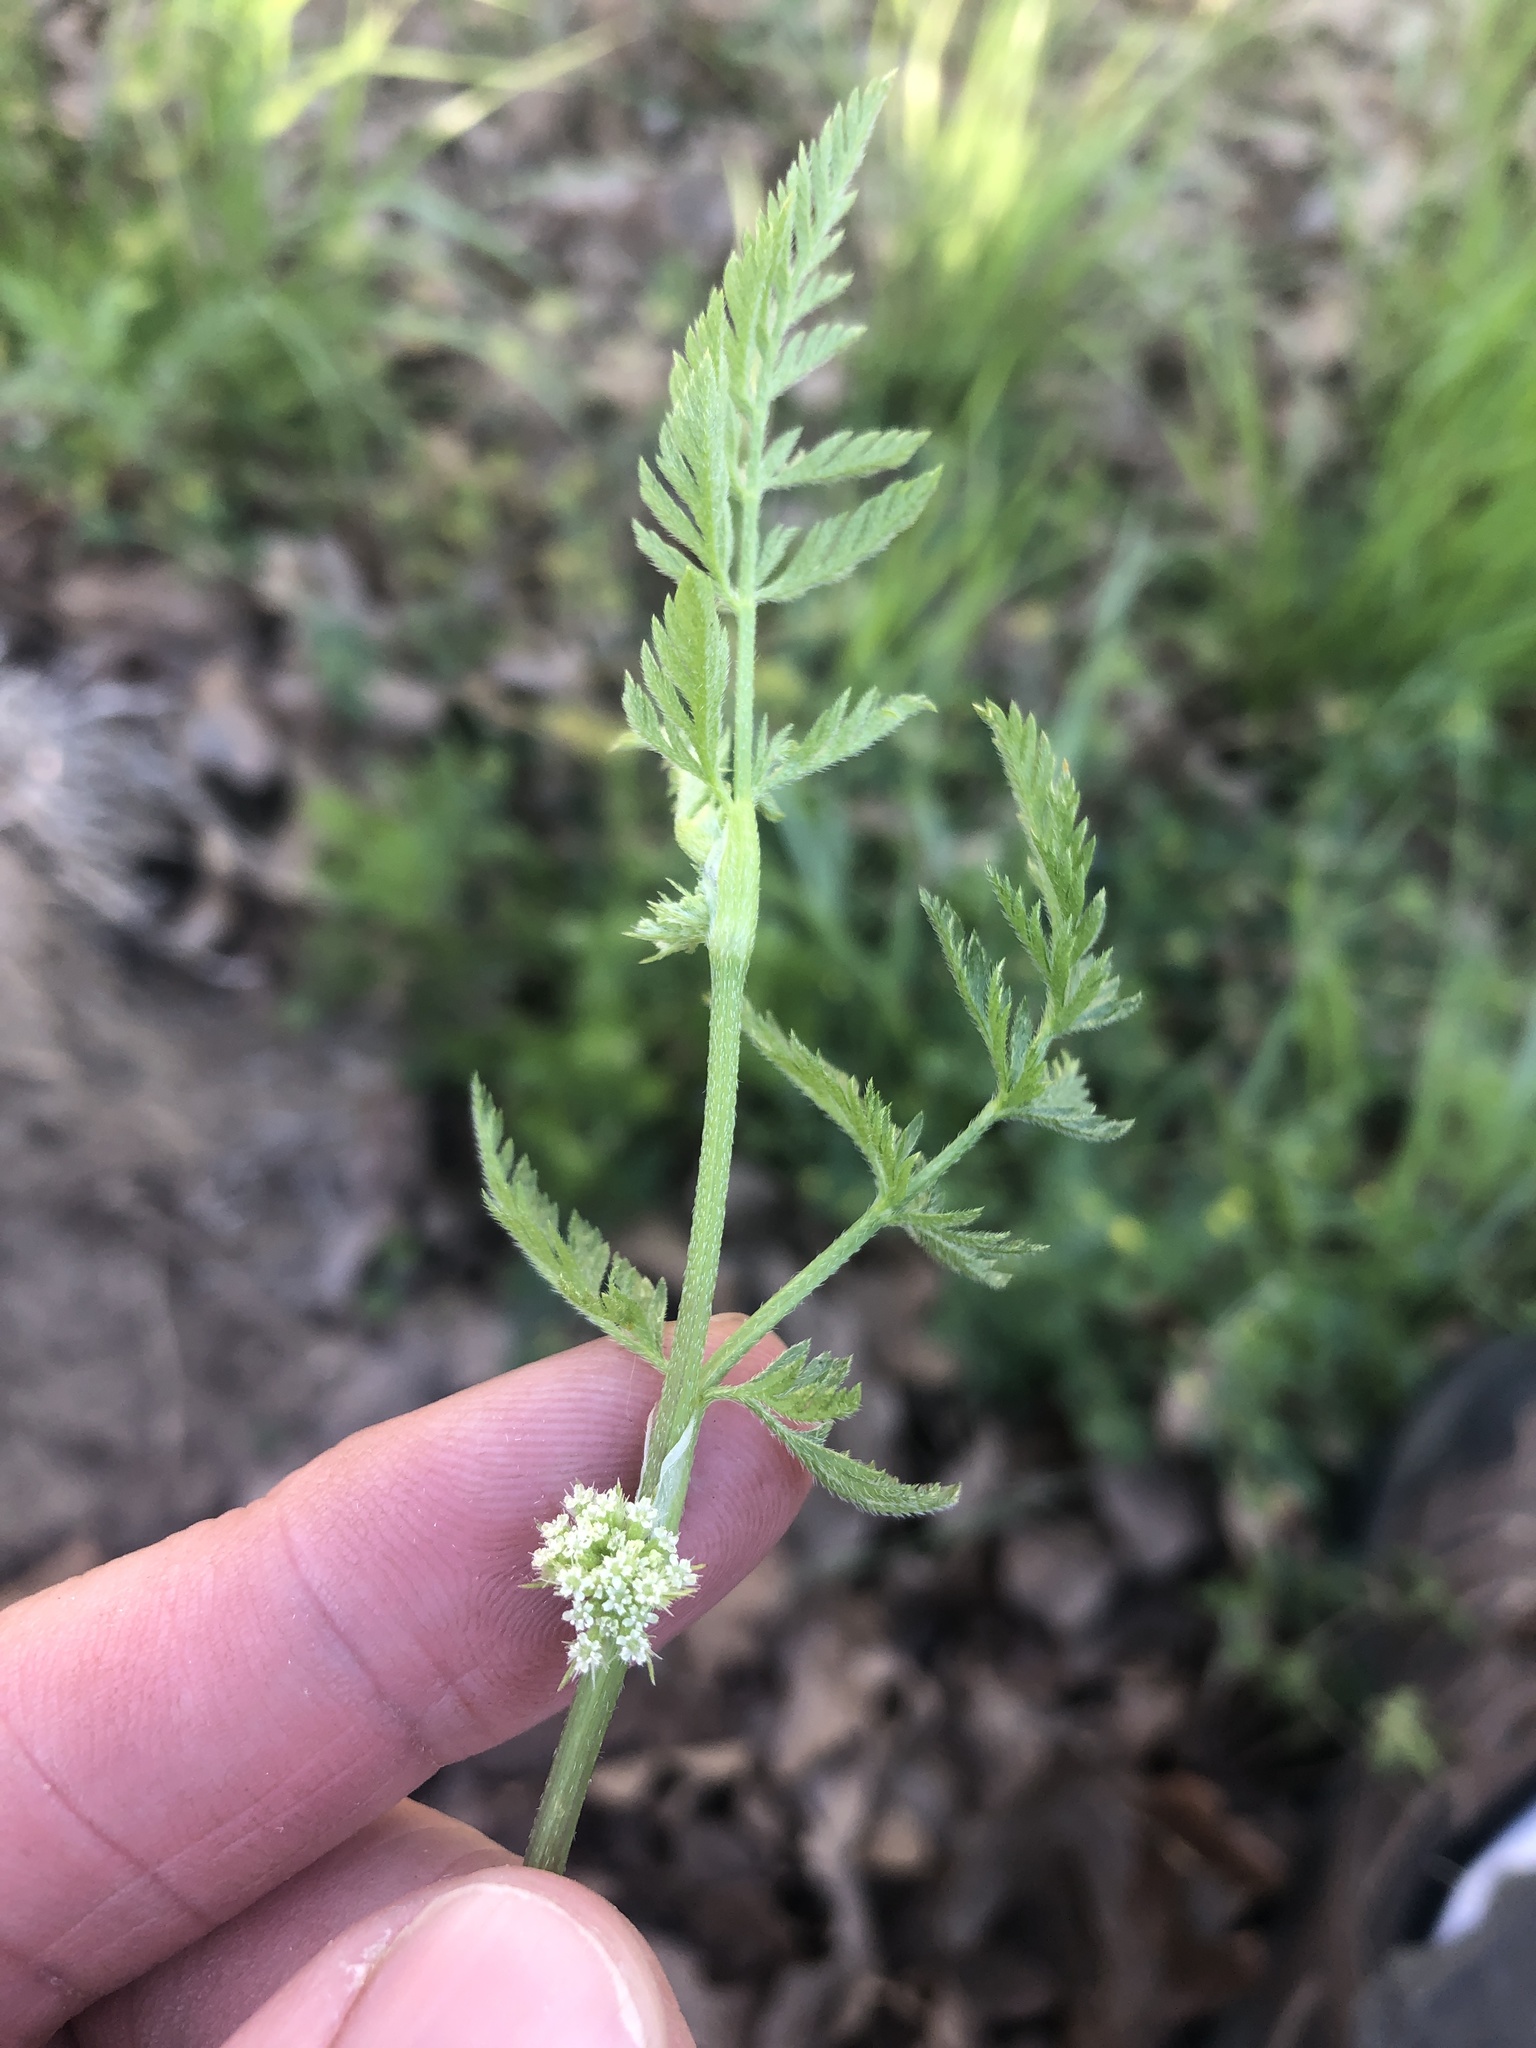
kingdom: Plantae
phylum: Tracheophyta
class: Magnoliopsida
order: Apiales
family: Apiaceae
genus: Torilis
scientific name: Torilis nodosa
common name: Knotted hedge-parsley
